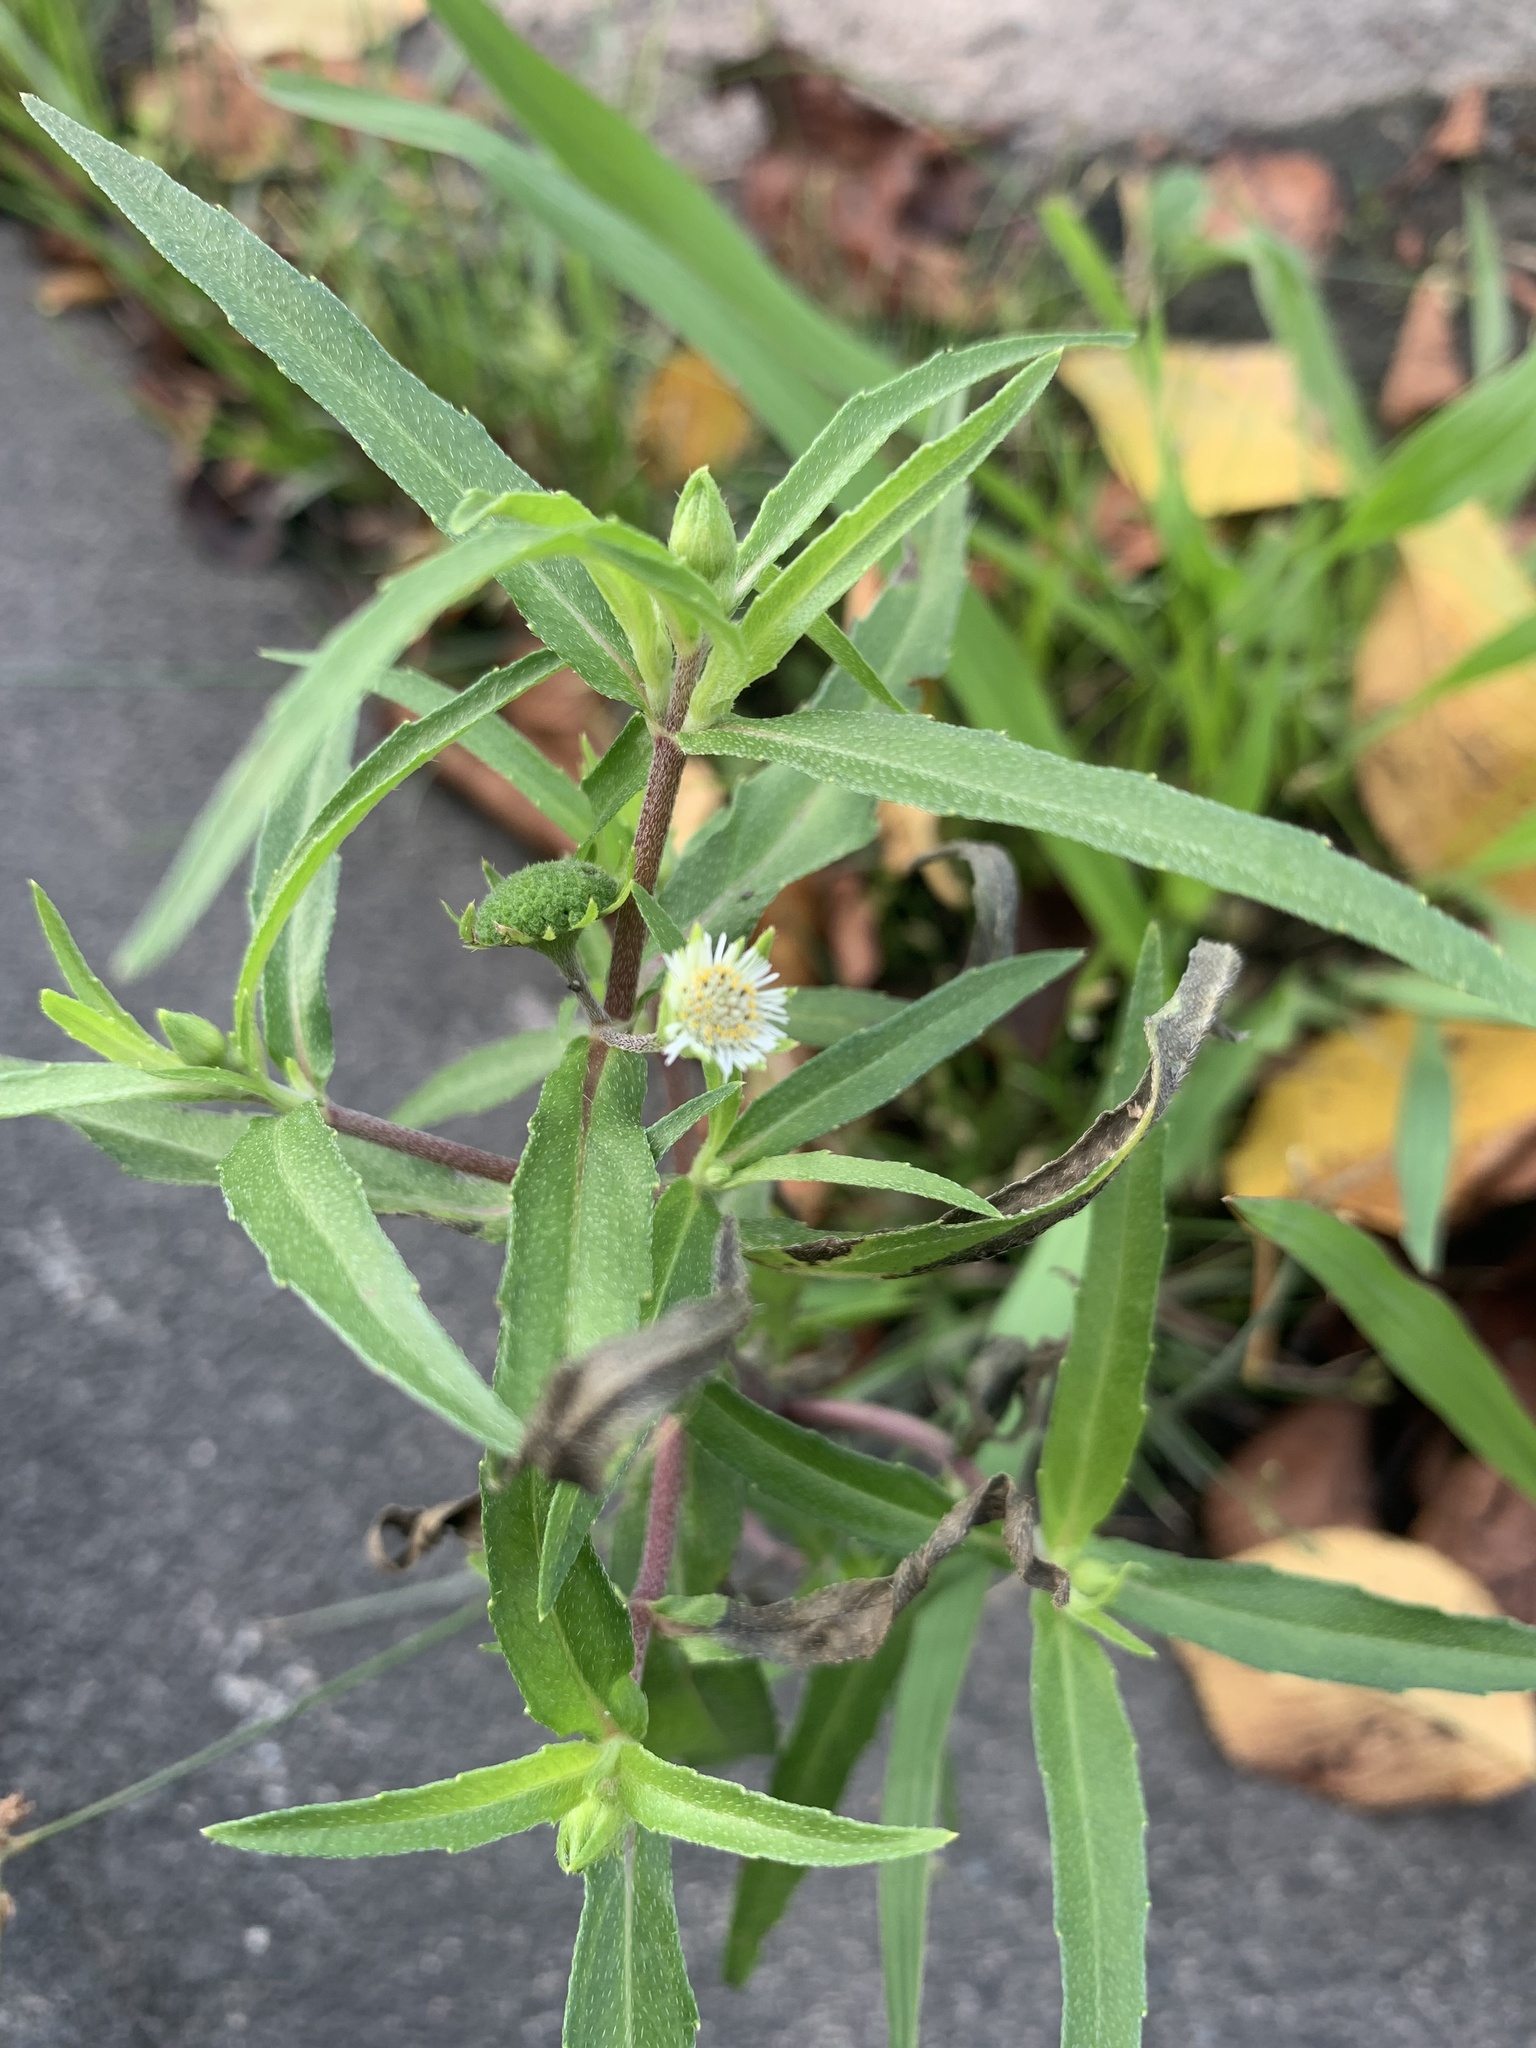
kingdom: Plantae
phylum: Tracheophyta
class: Magnoliopsida
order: Asterales
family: Asteraceae
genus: Eclipta
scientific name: Eclipta prostrata
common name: False daisy
